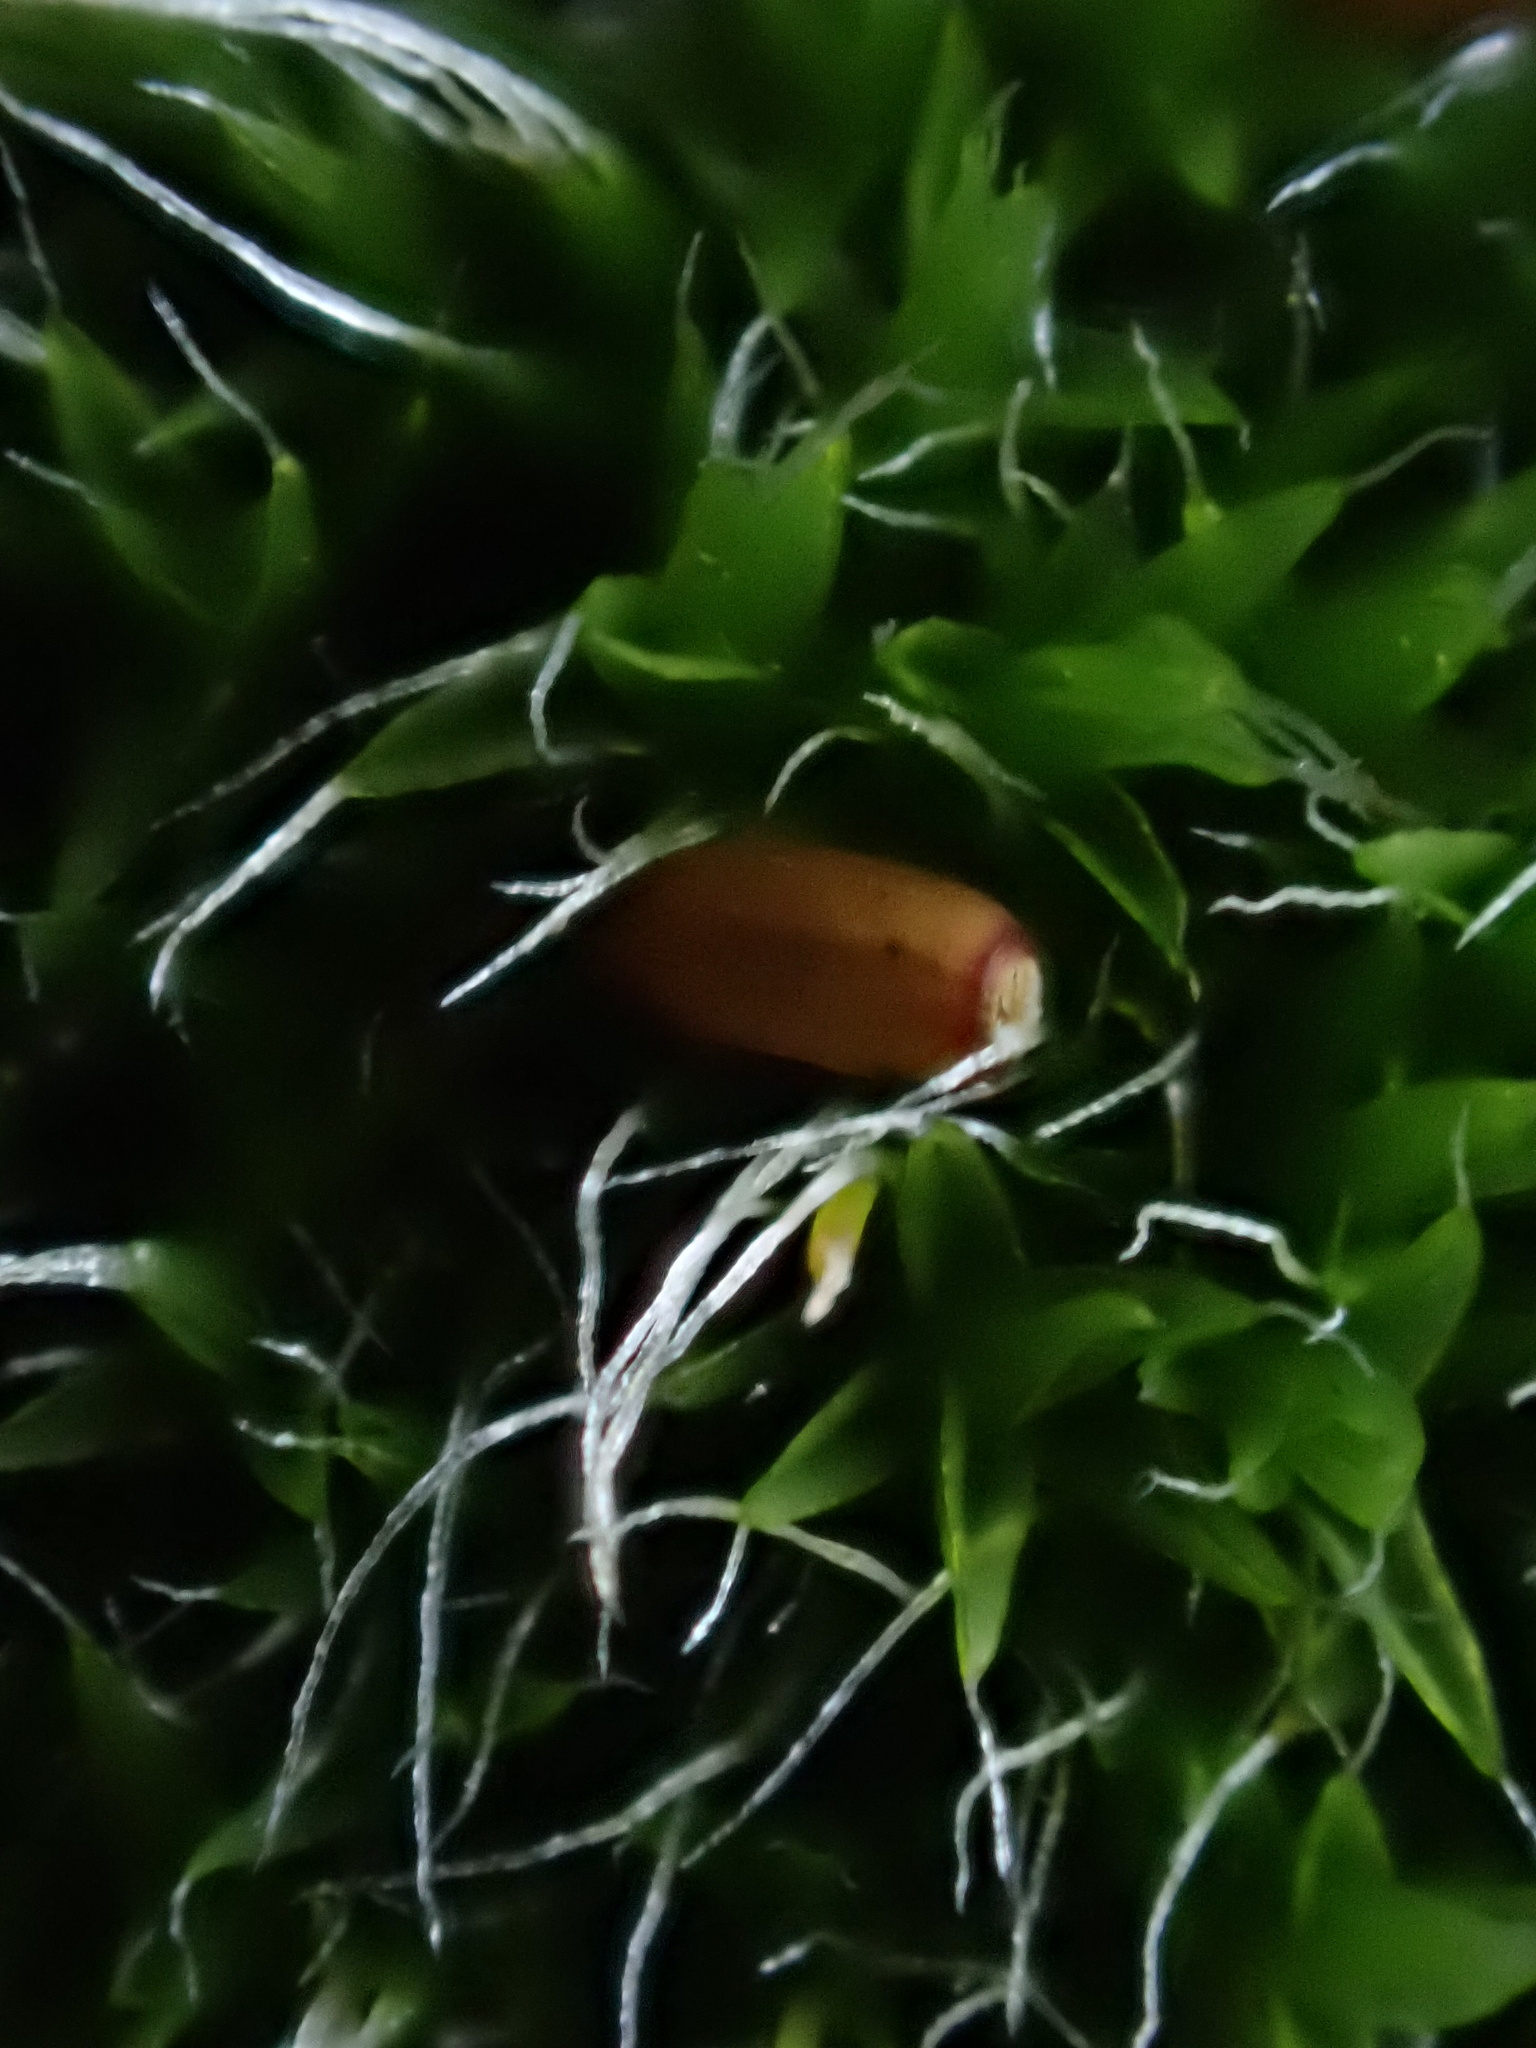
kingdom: Plantae
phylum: Bryophyta
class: Bryopsida
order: Grimmiales
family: Grimmiaceae
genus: Grimmia
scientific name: Grimmia pulvinata
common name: Grey-cushioned grimmia
